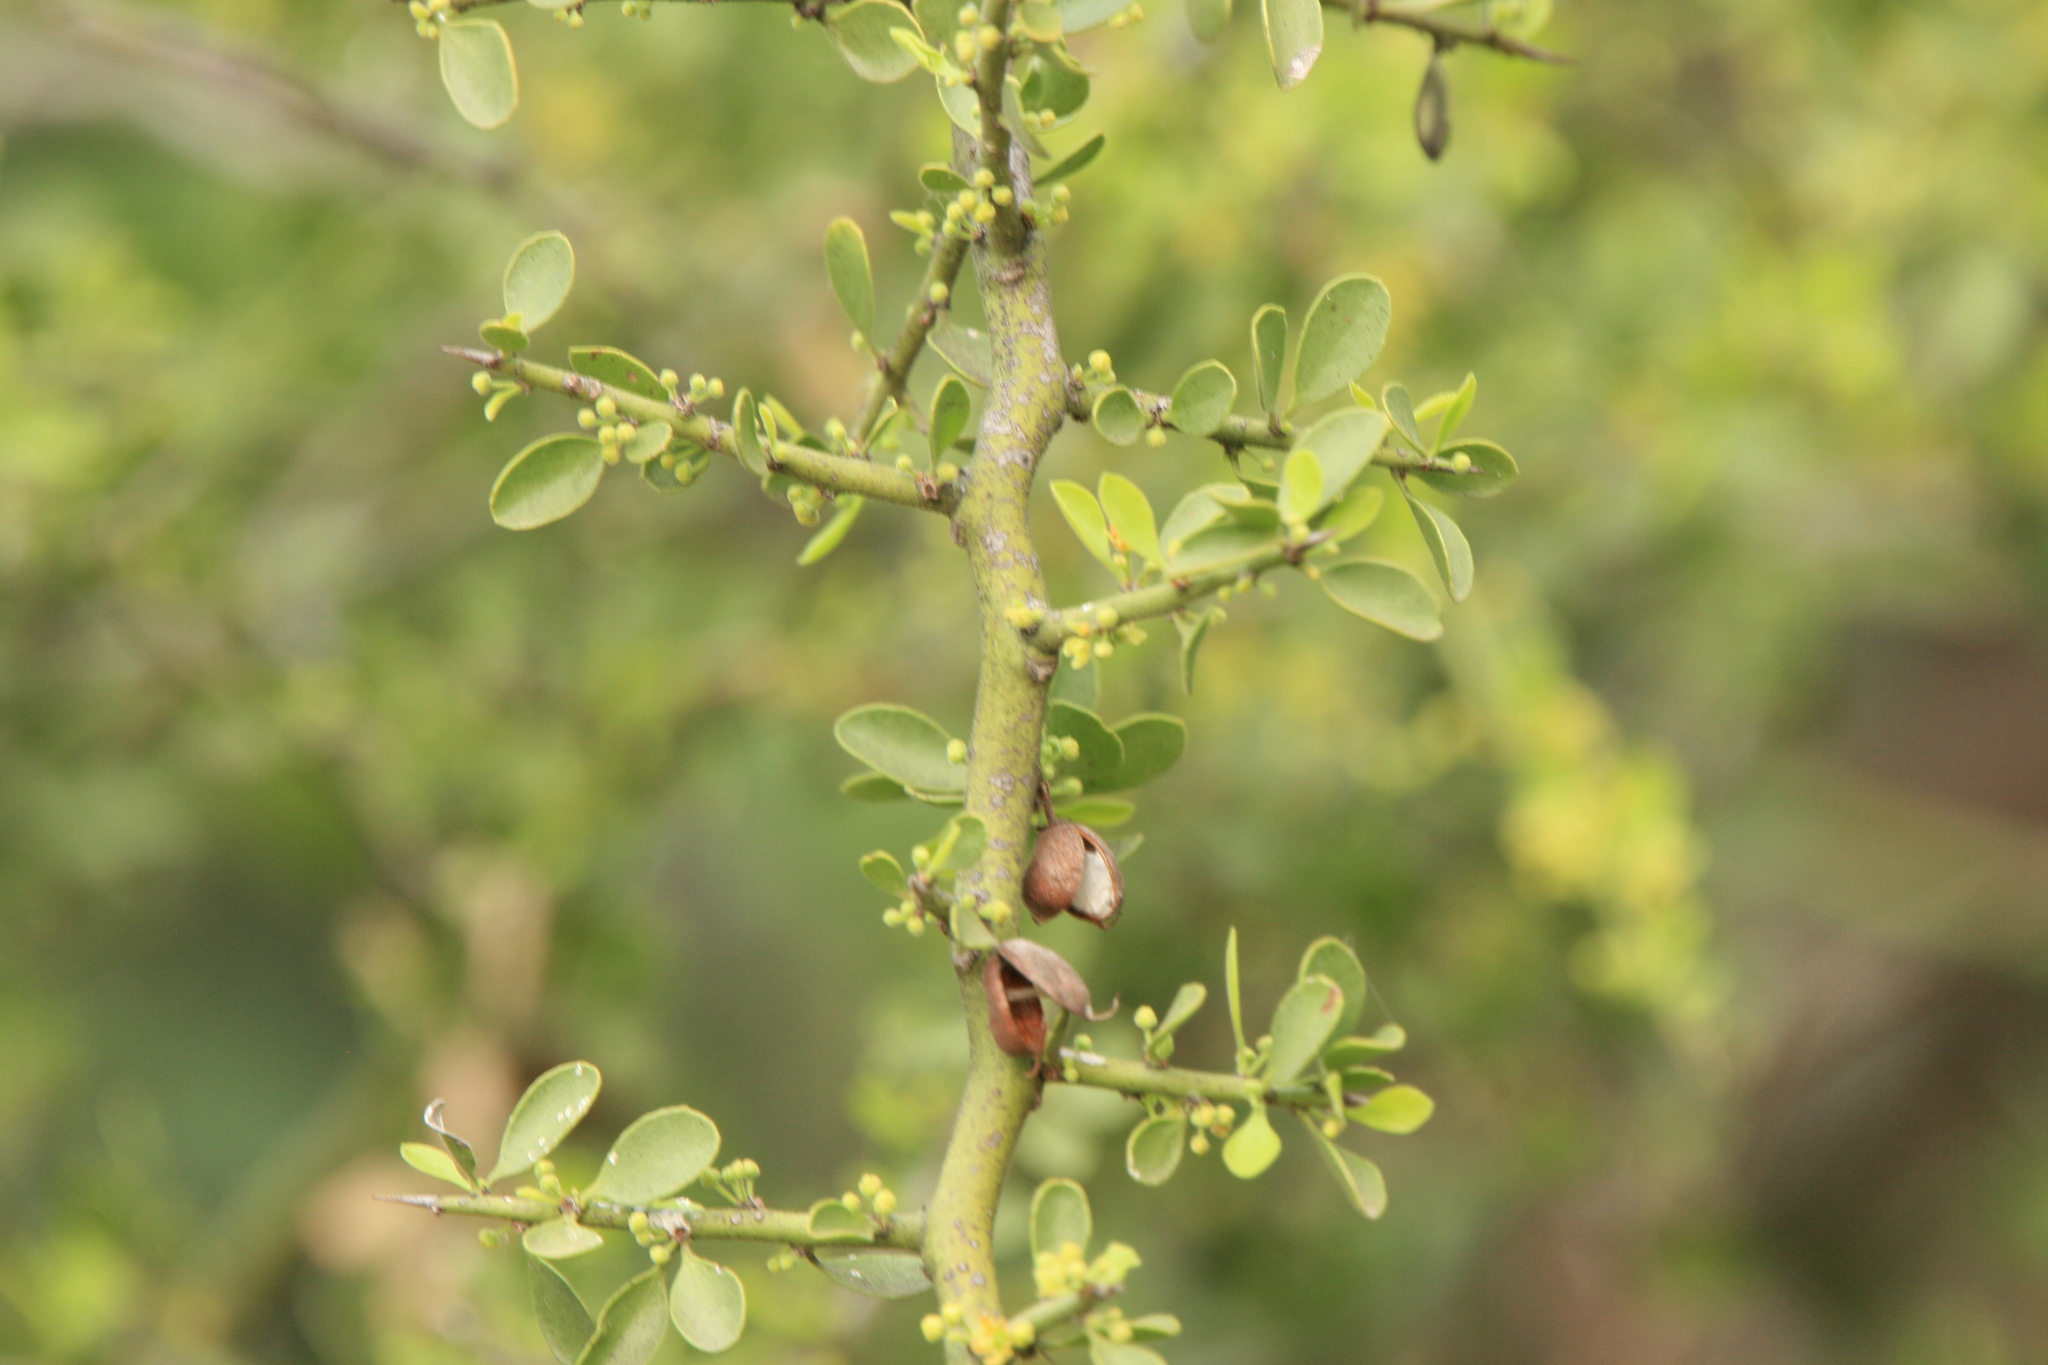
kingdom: Plantae
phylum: Tracheophyta
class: Magnoliopsida
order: Celastrales
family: Celastraceae
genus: Monteverdia
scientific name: Monteverdia spinosa
